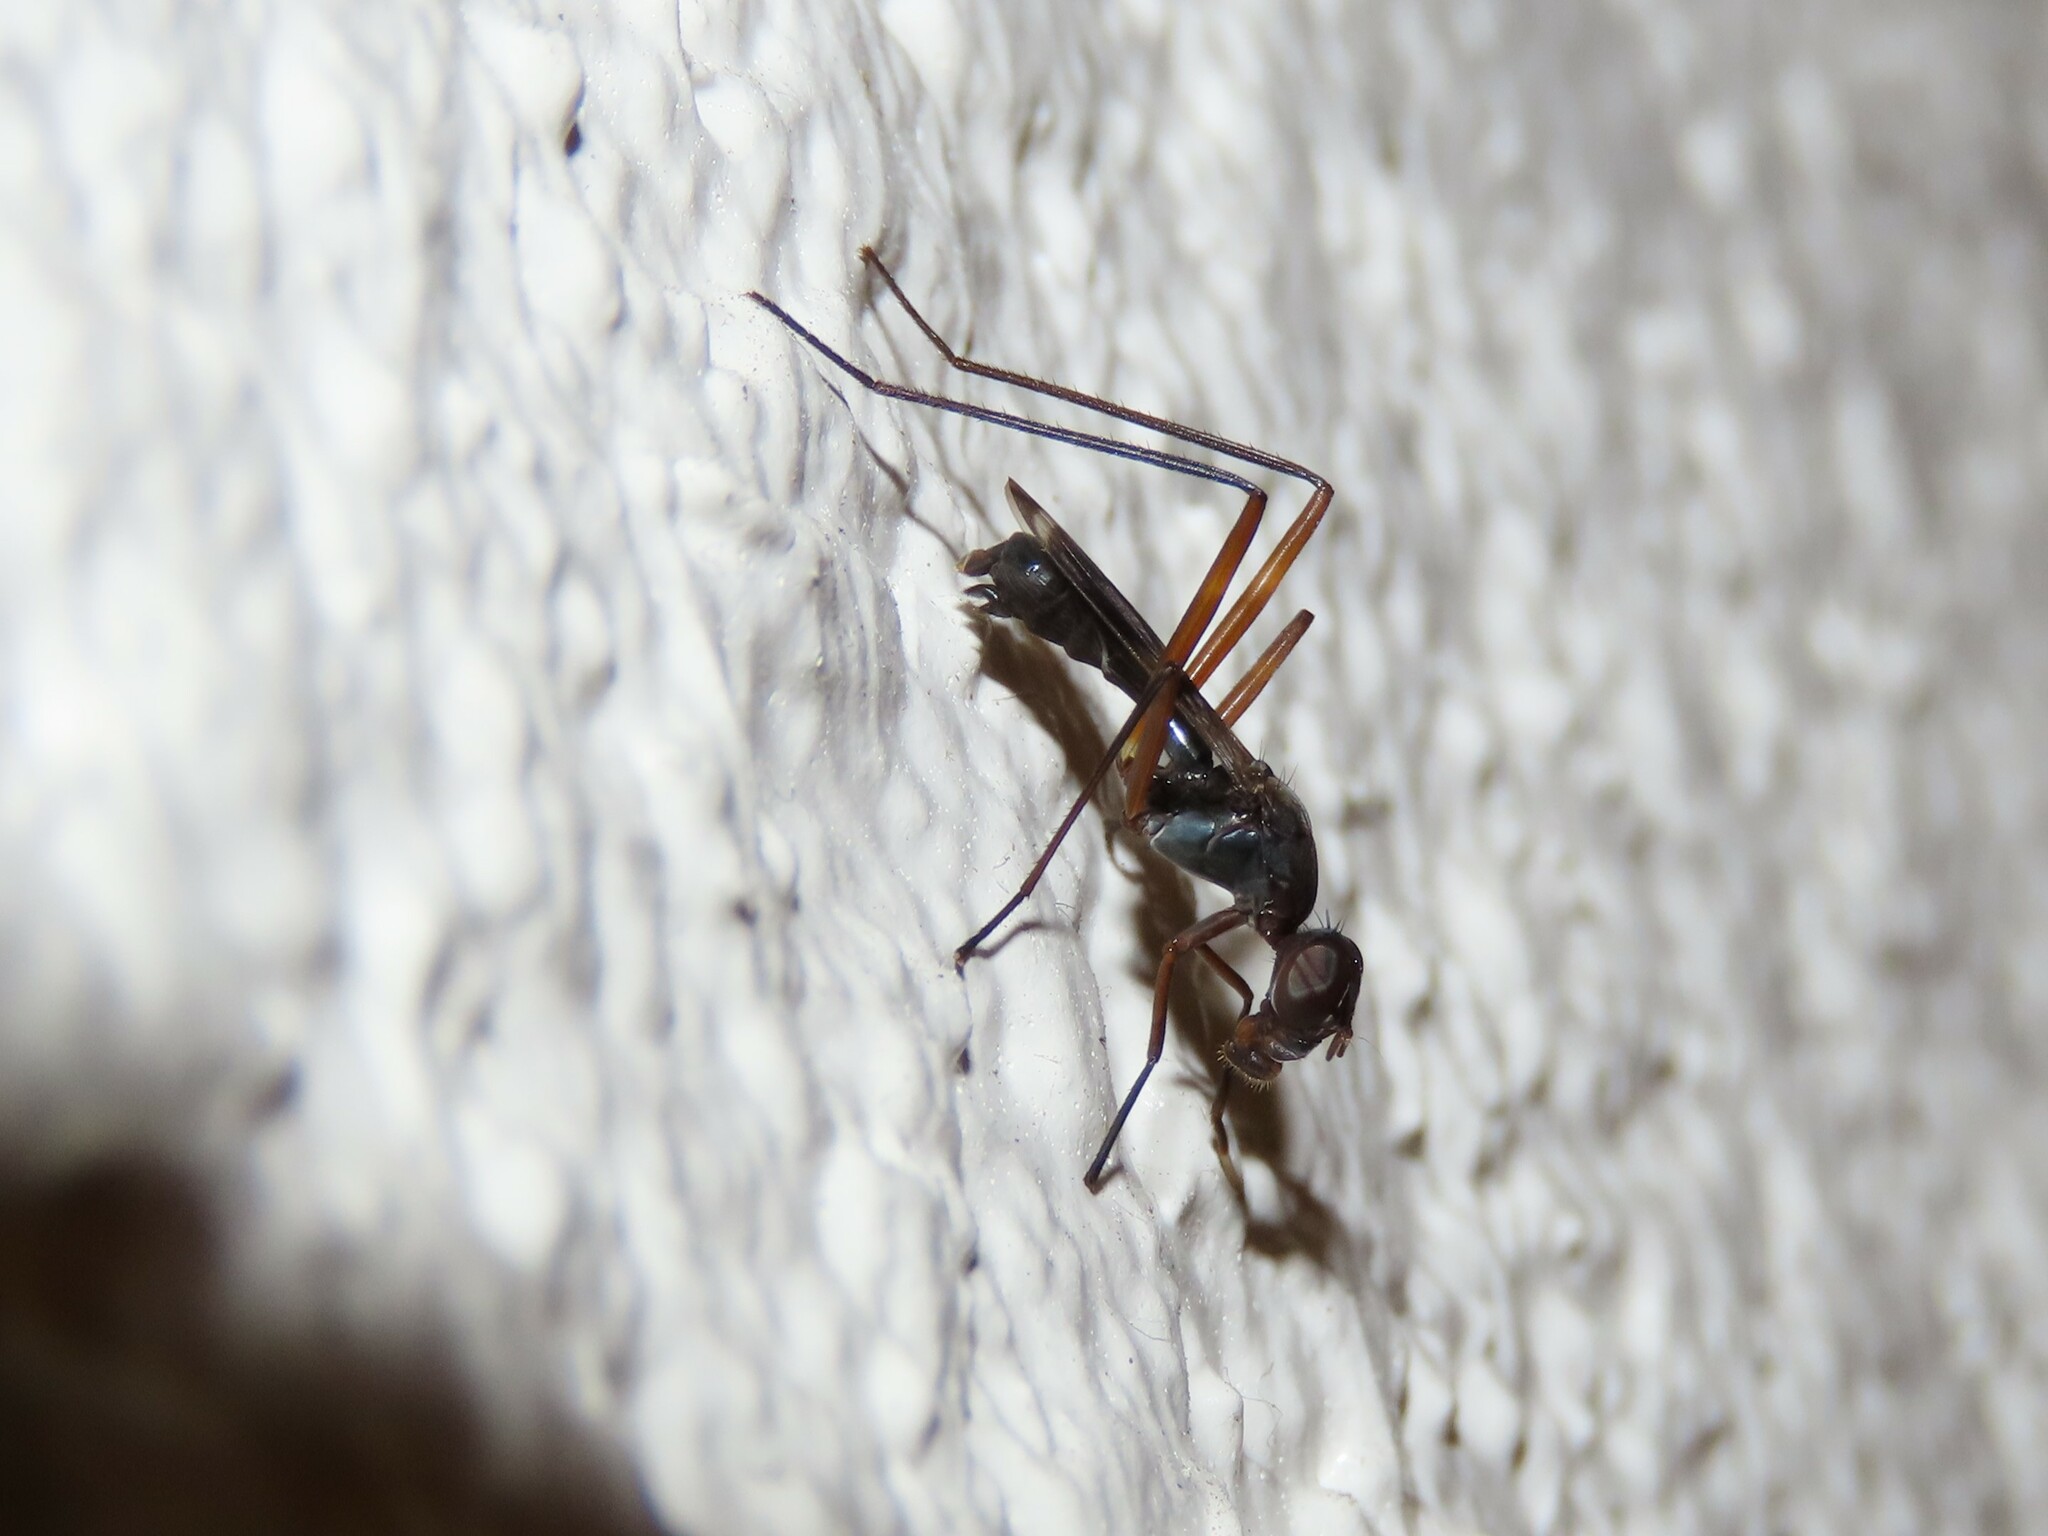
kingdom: Animalia
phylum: Arthropoda
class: Insecta
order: Diptera
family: Micropezidae
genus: Taeniaptera
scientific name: Taeniaptera trivittata
